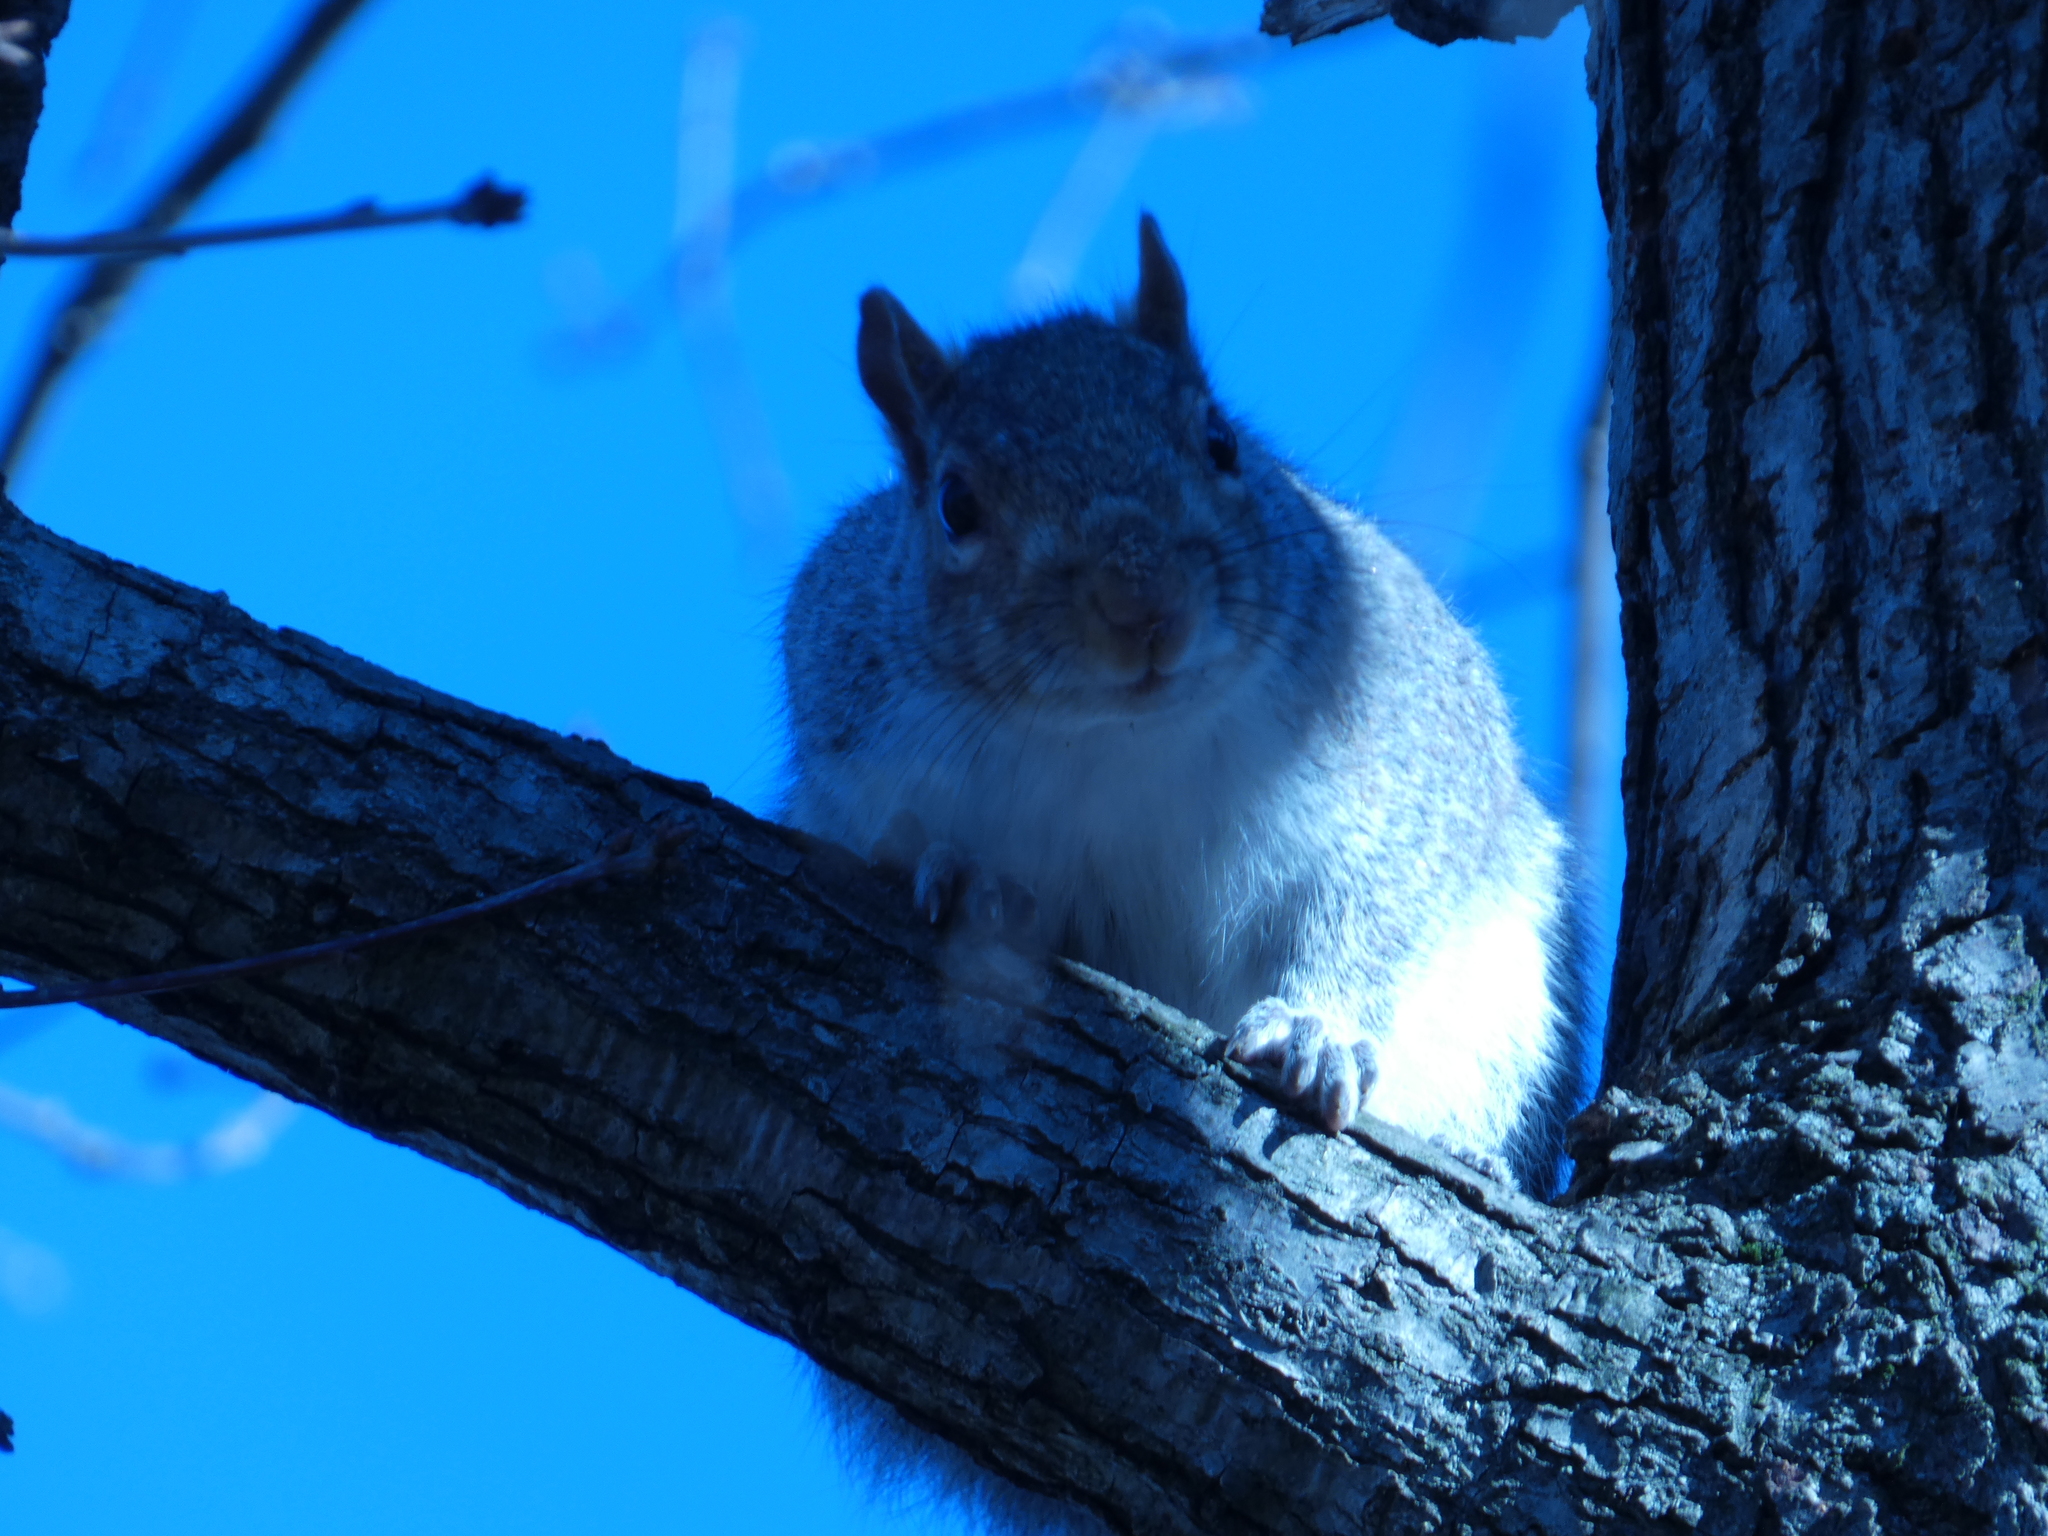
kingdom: Animalia
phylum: Chordata
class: Mammalia
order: Rodentia
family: Sciuridae
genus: Sciurus
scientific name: Sciurus carolinensis
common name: Eastern gray squirrel
